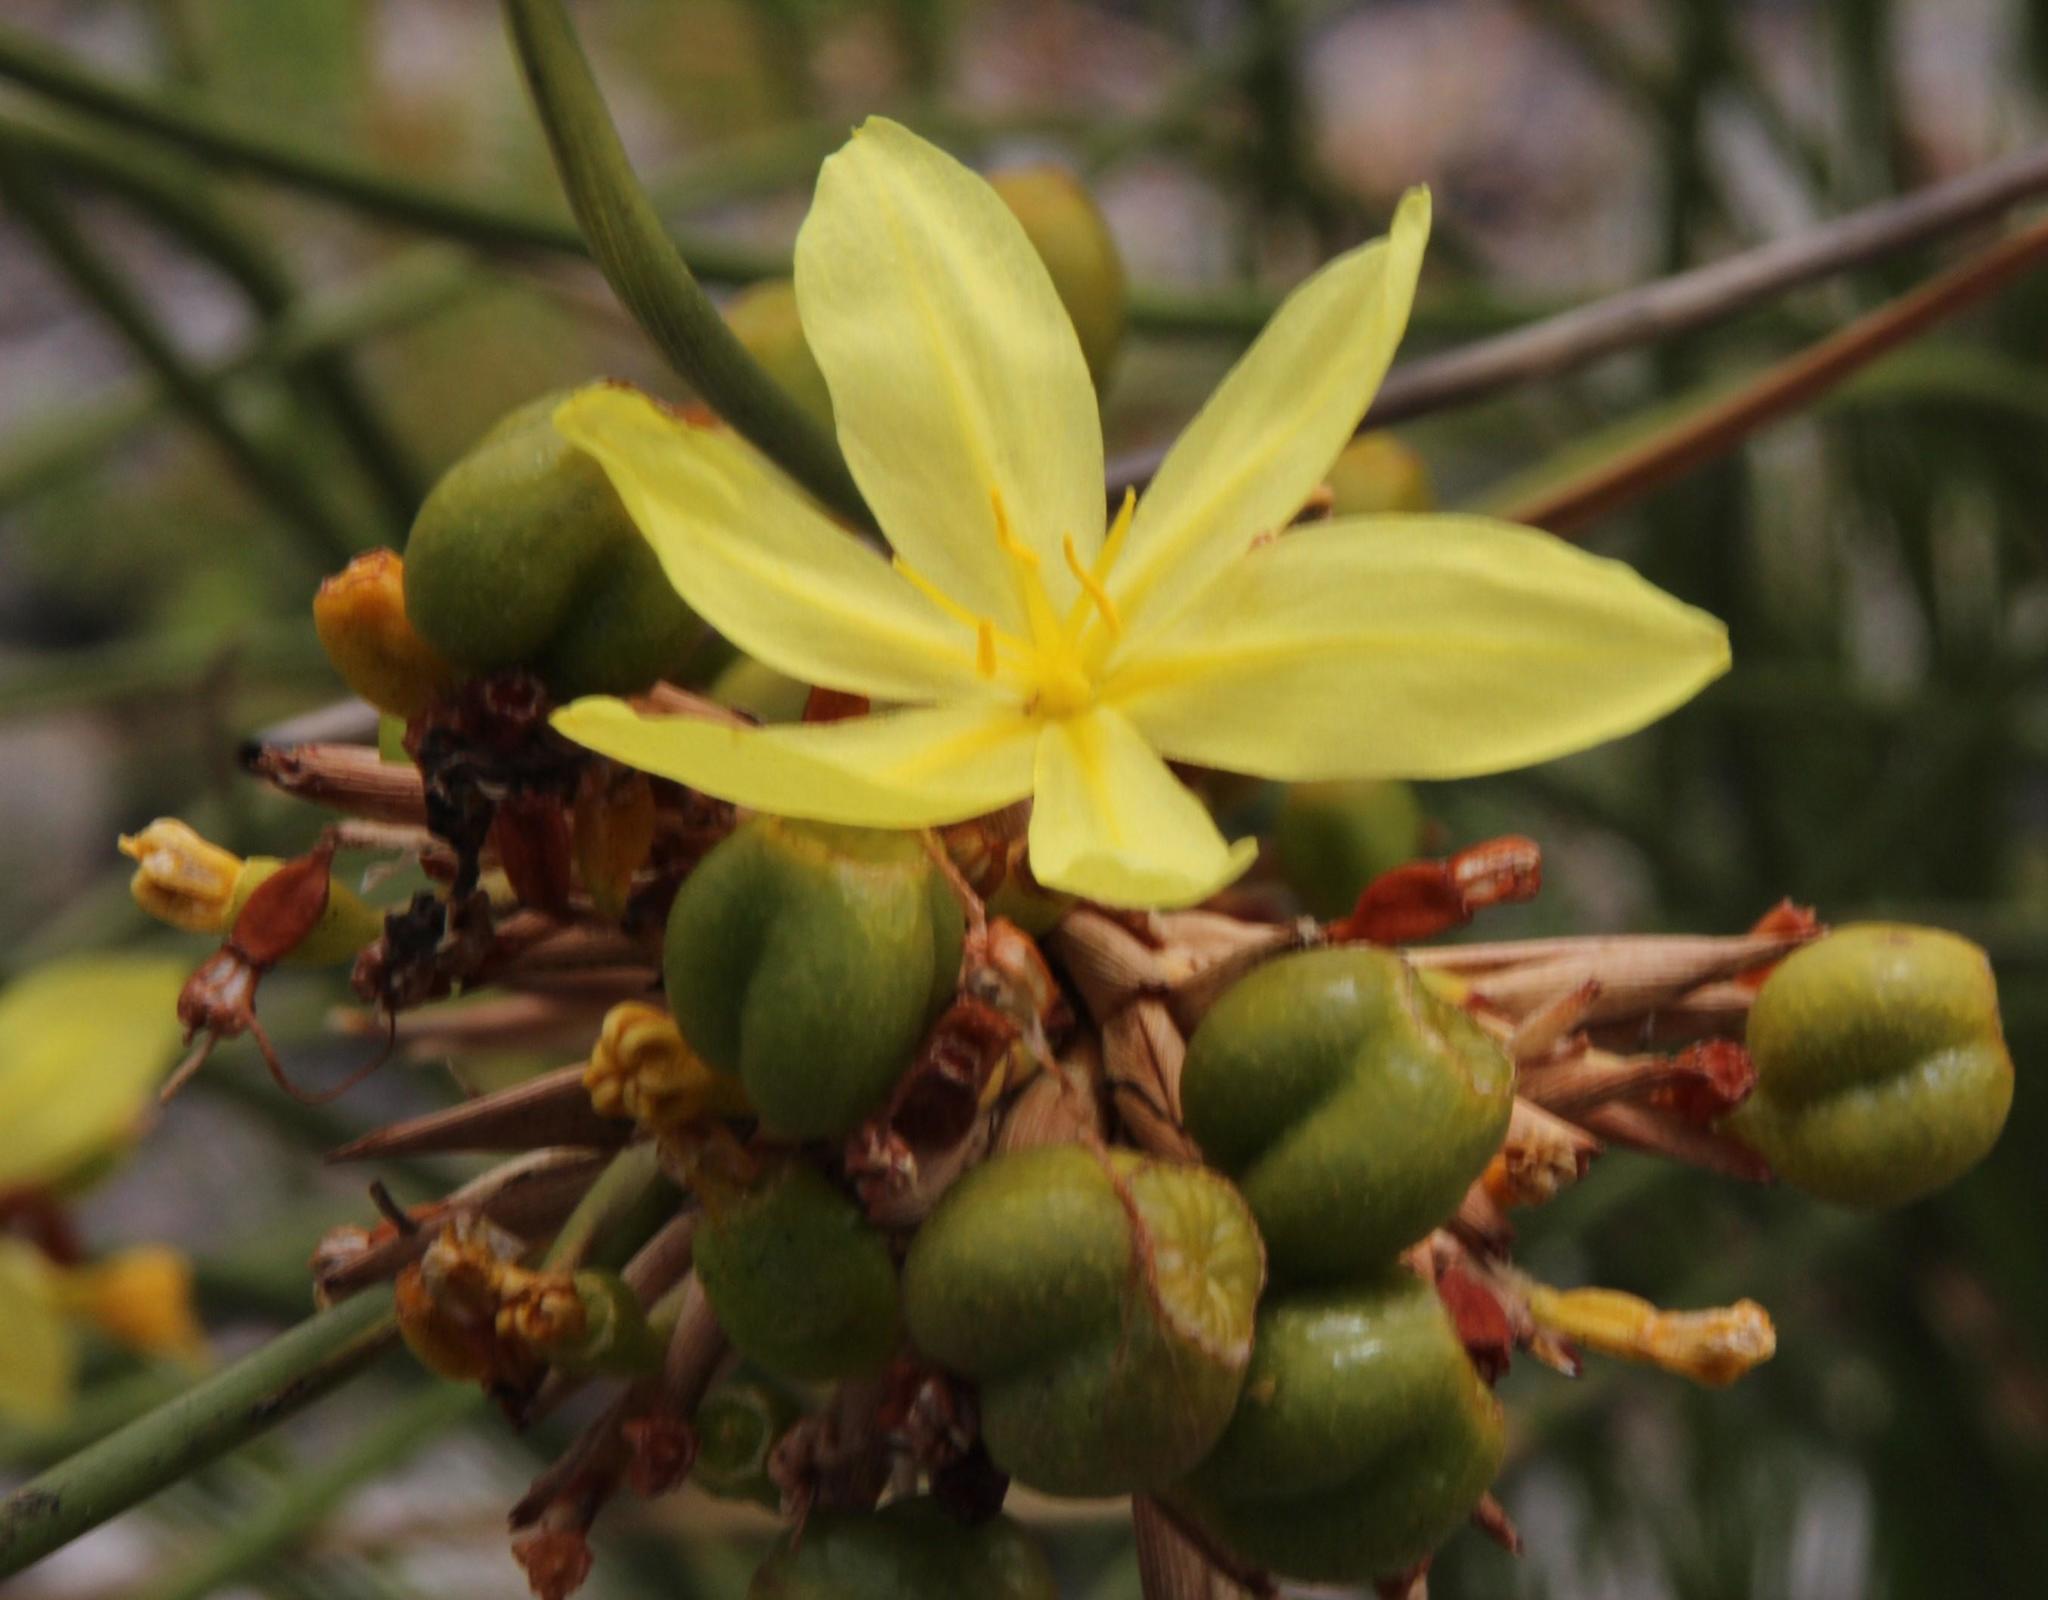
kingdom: Plantae
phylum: Tracheophyta
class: Liliopsida
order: Asparagales
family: Iridaceae
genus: Bobartia
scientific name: Bobartia indica
